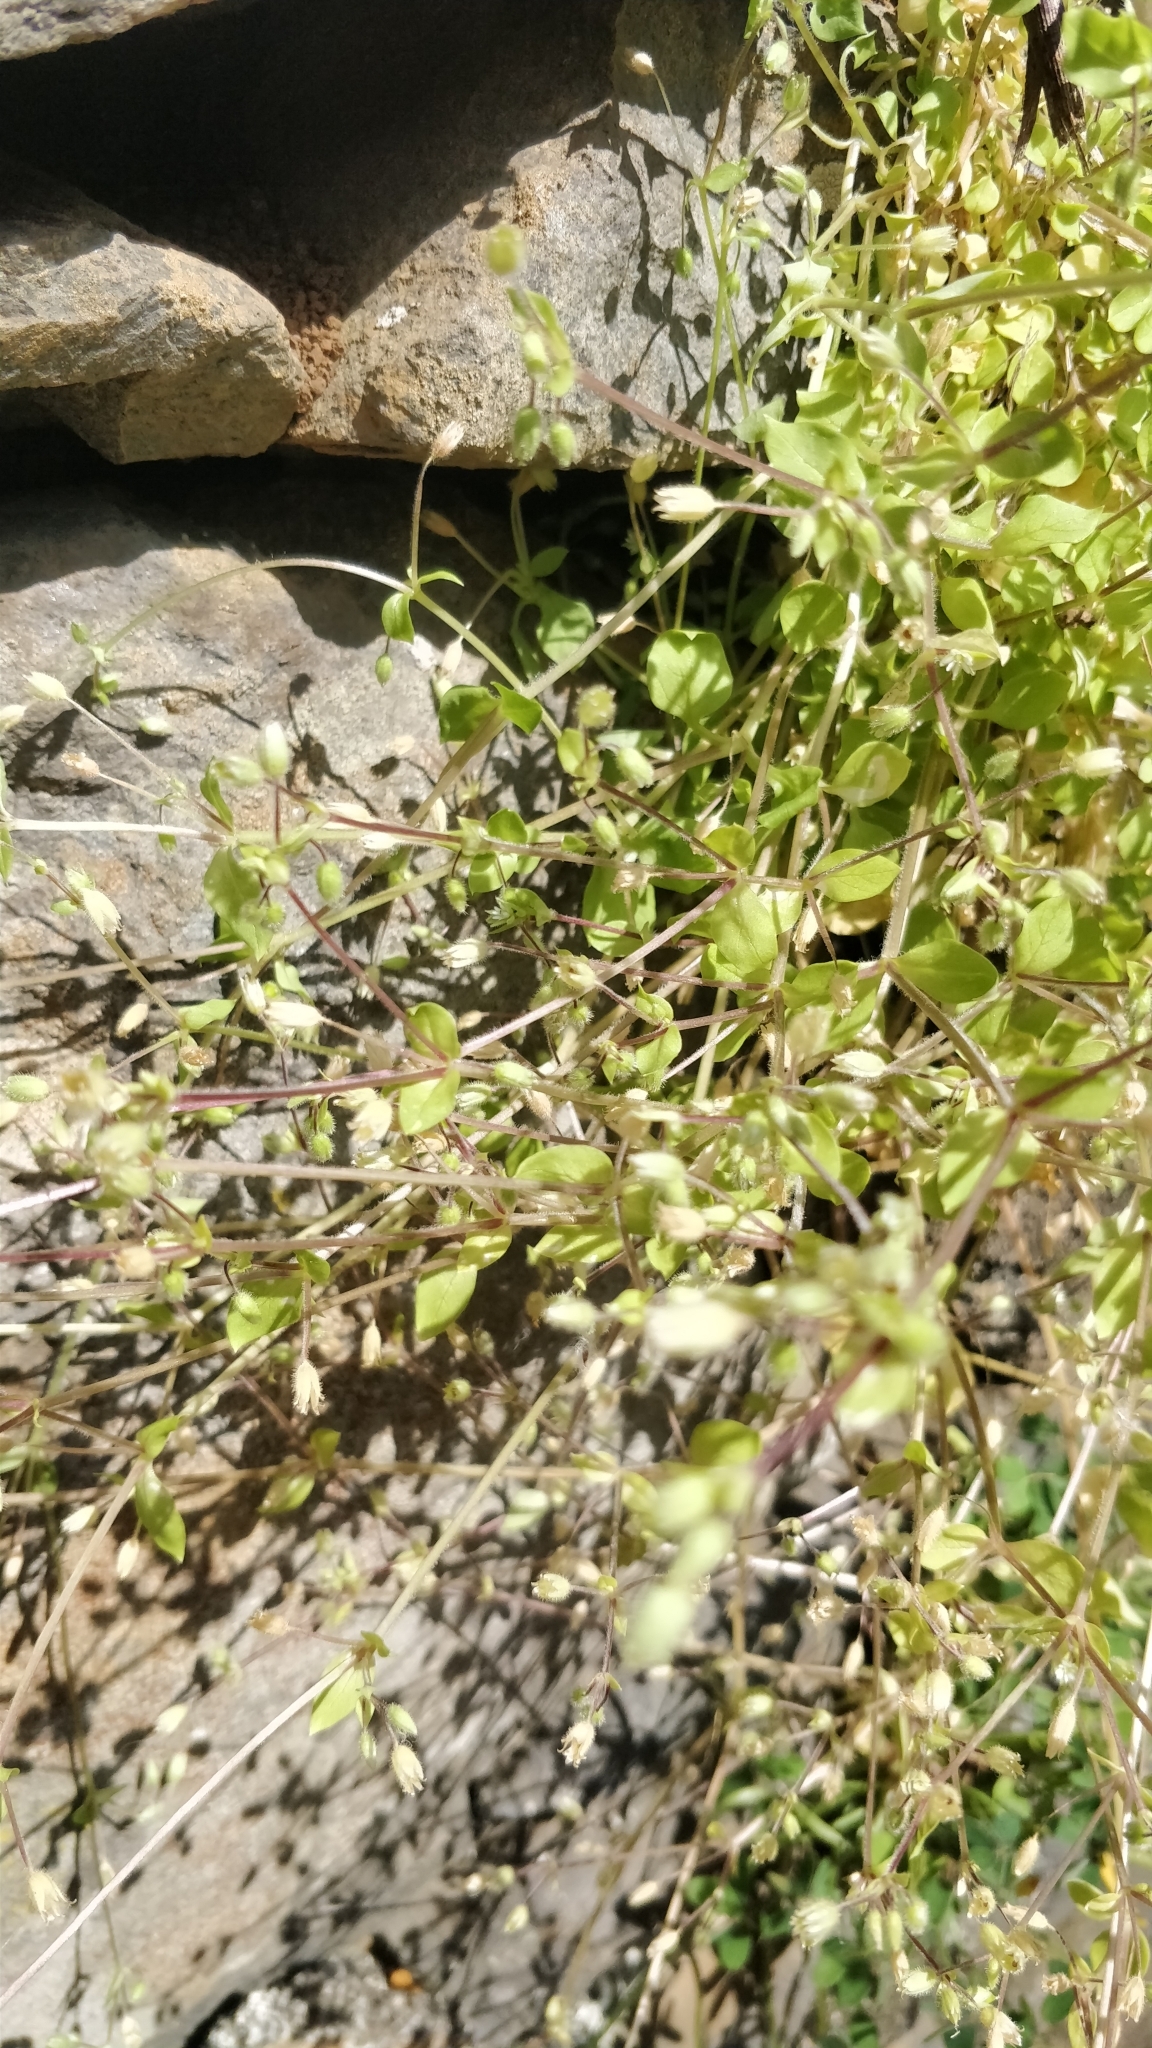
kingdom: Plantae
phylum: Tracheophyta
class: Magnoliopsida
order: Caryophyllales
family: Caryophyllaceae
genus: Stellaria
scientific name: Stellaria media
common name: Common chickweed
